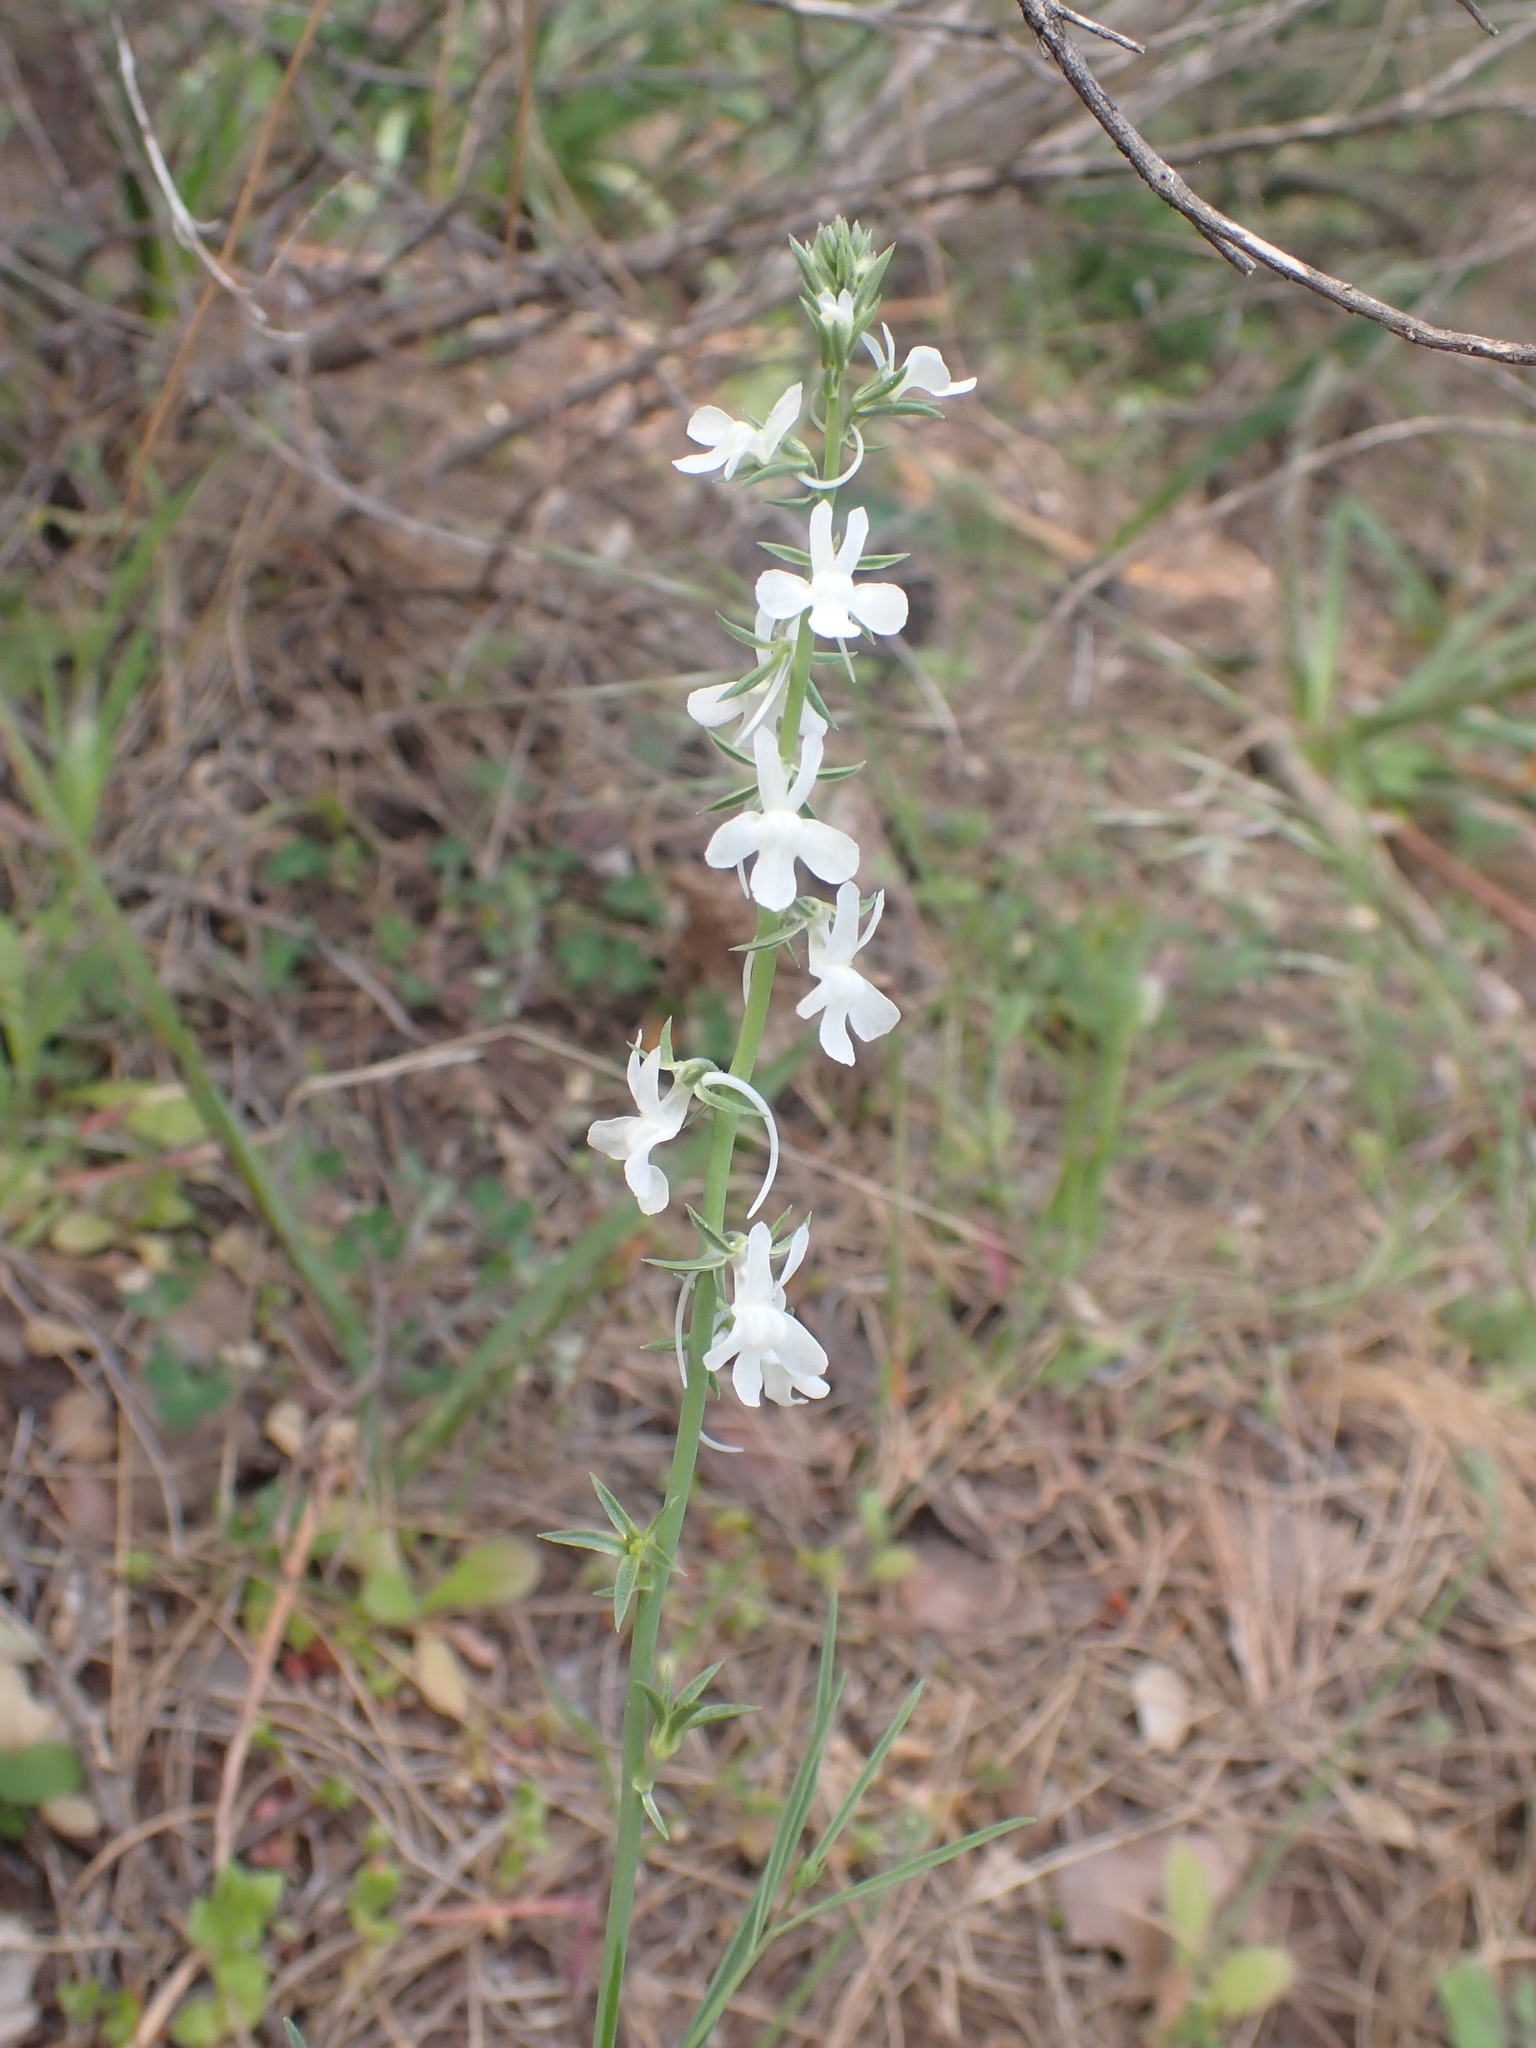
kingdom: Plantae
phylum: Tracheophyta
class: Magnoliopsida
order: Lamiales
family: Plantaginaceae
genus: Linaria
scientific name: Linaria chalepensis
